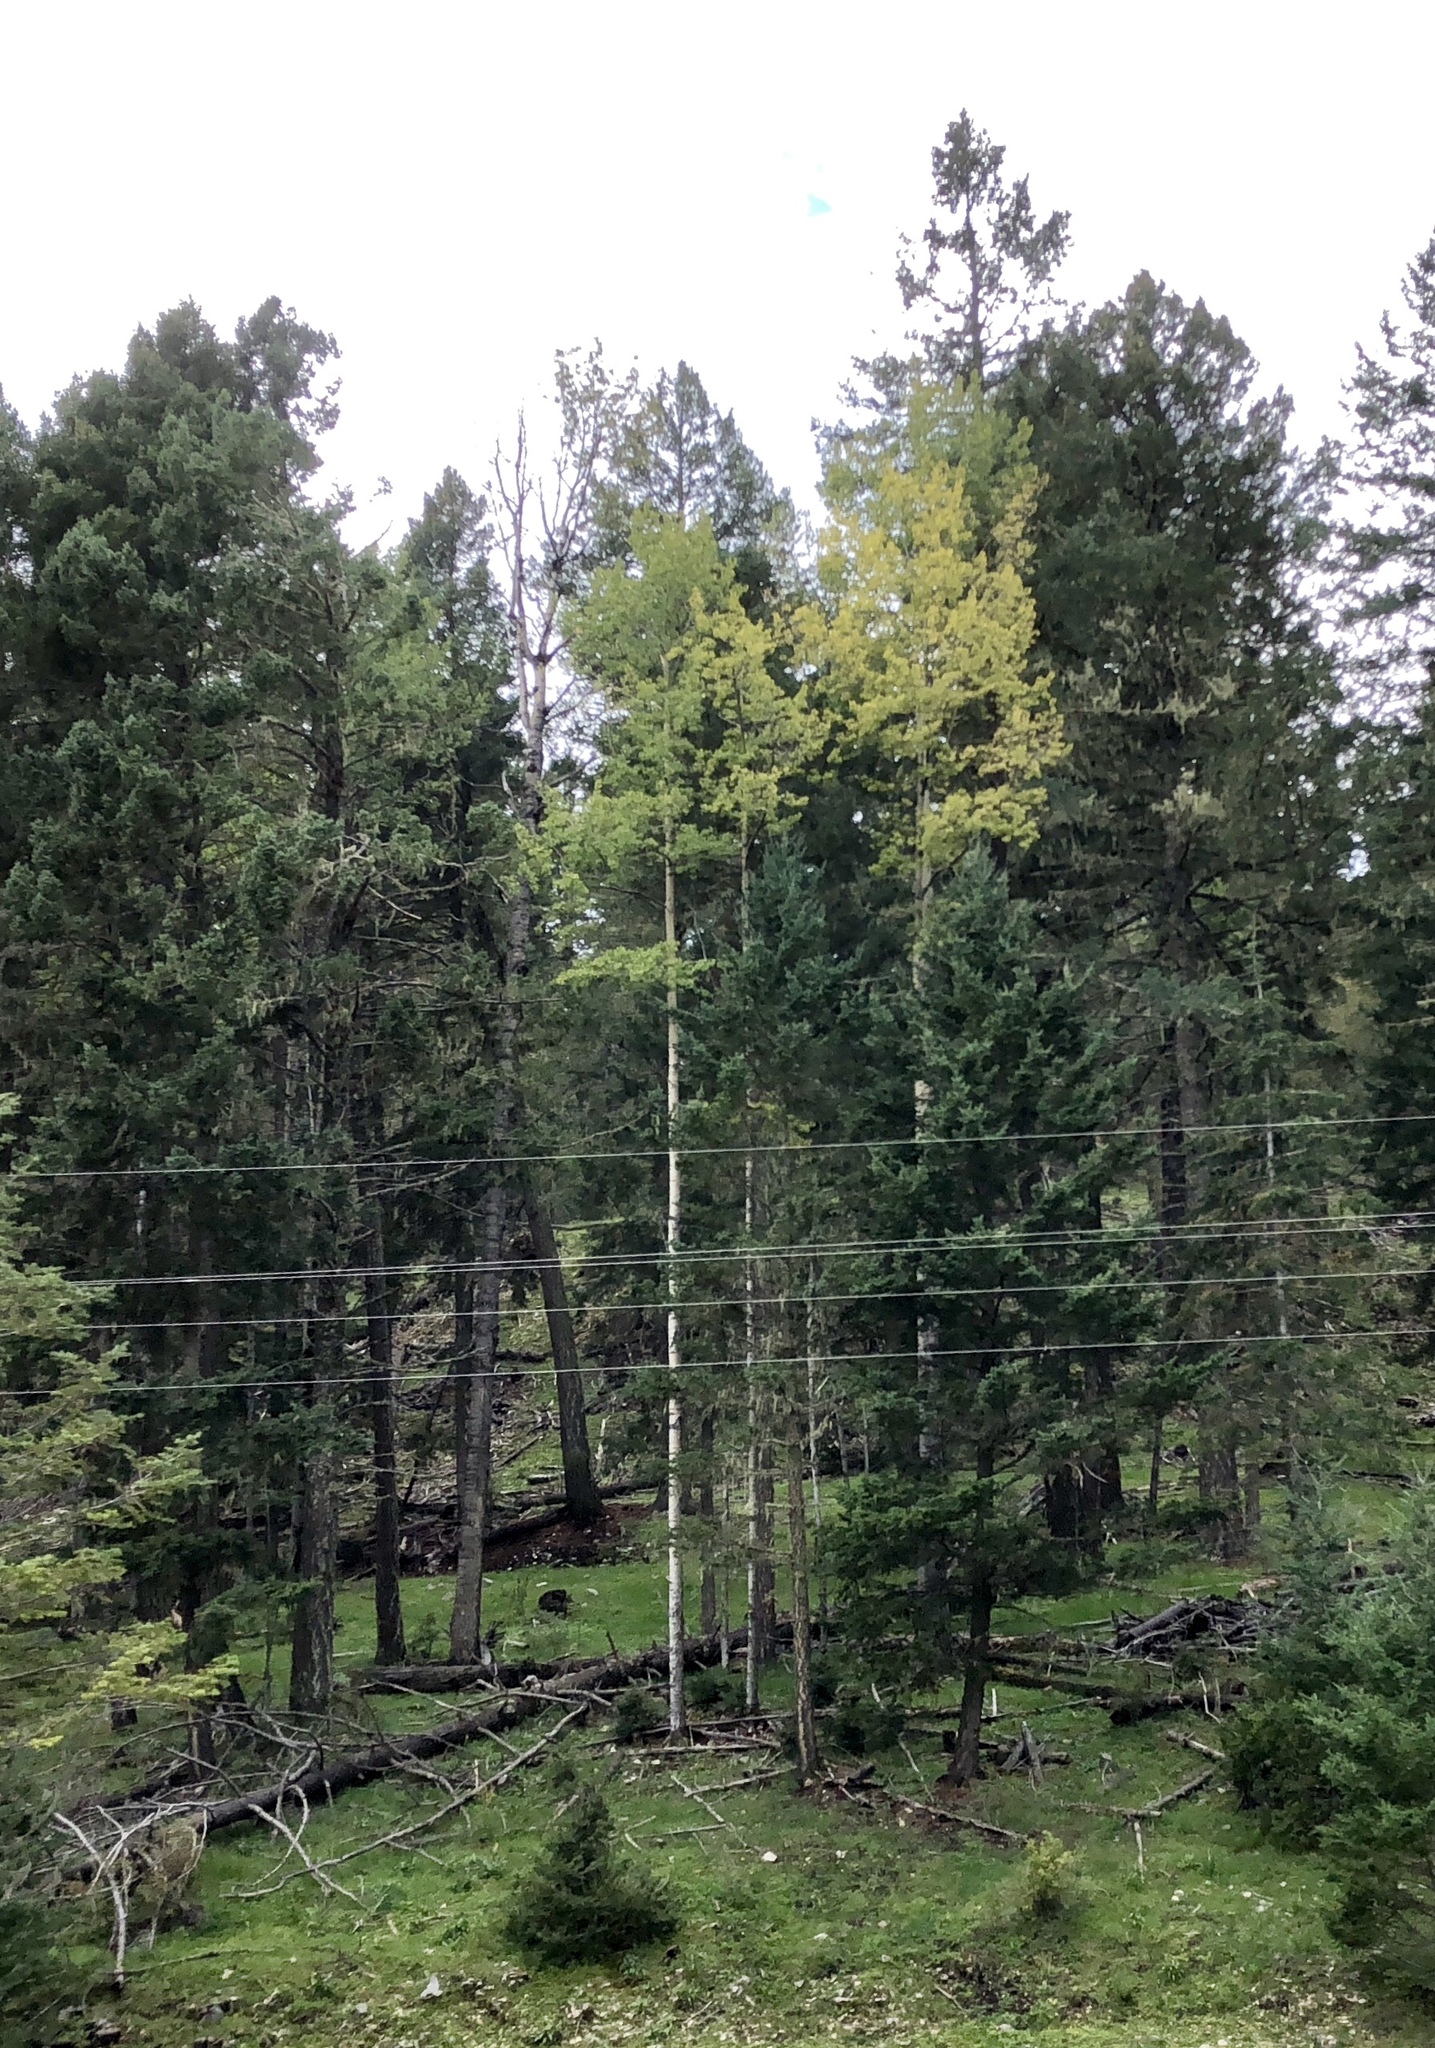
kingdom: Plantae
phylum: Tracheophyta
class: Magnoliopsida
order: Malpighiales
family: Salicaceae
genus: Populus
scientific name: Populus tremuloides
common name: Quaking aspen
